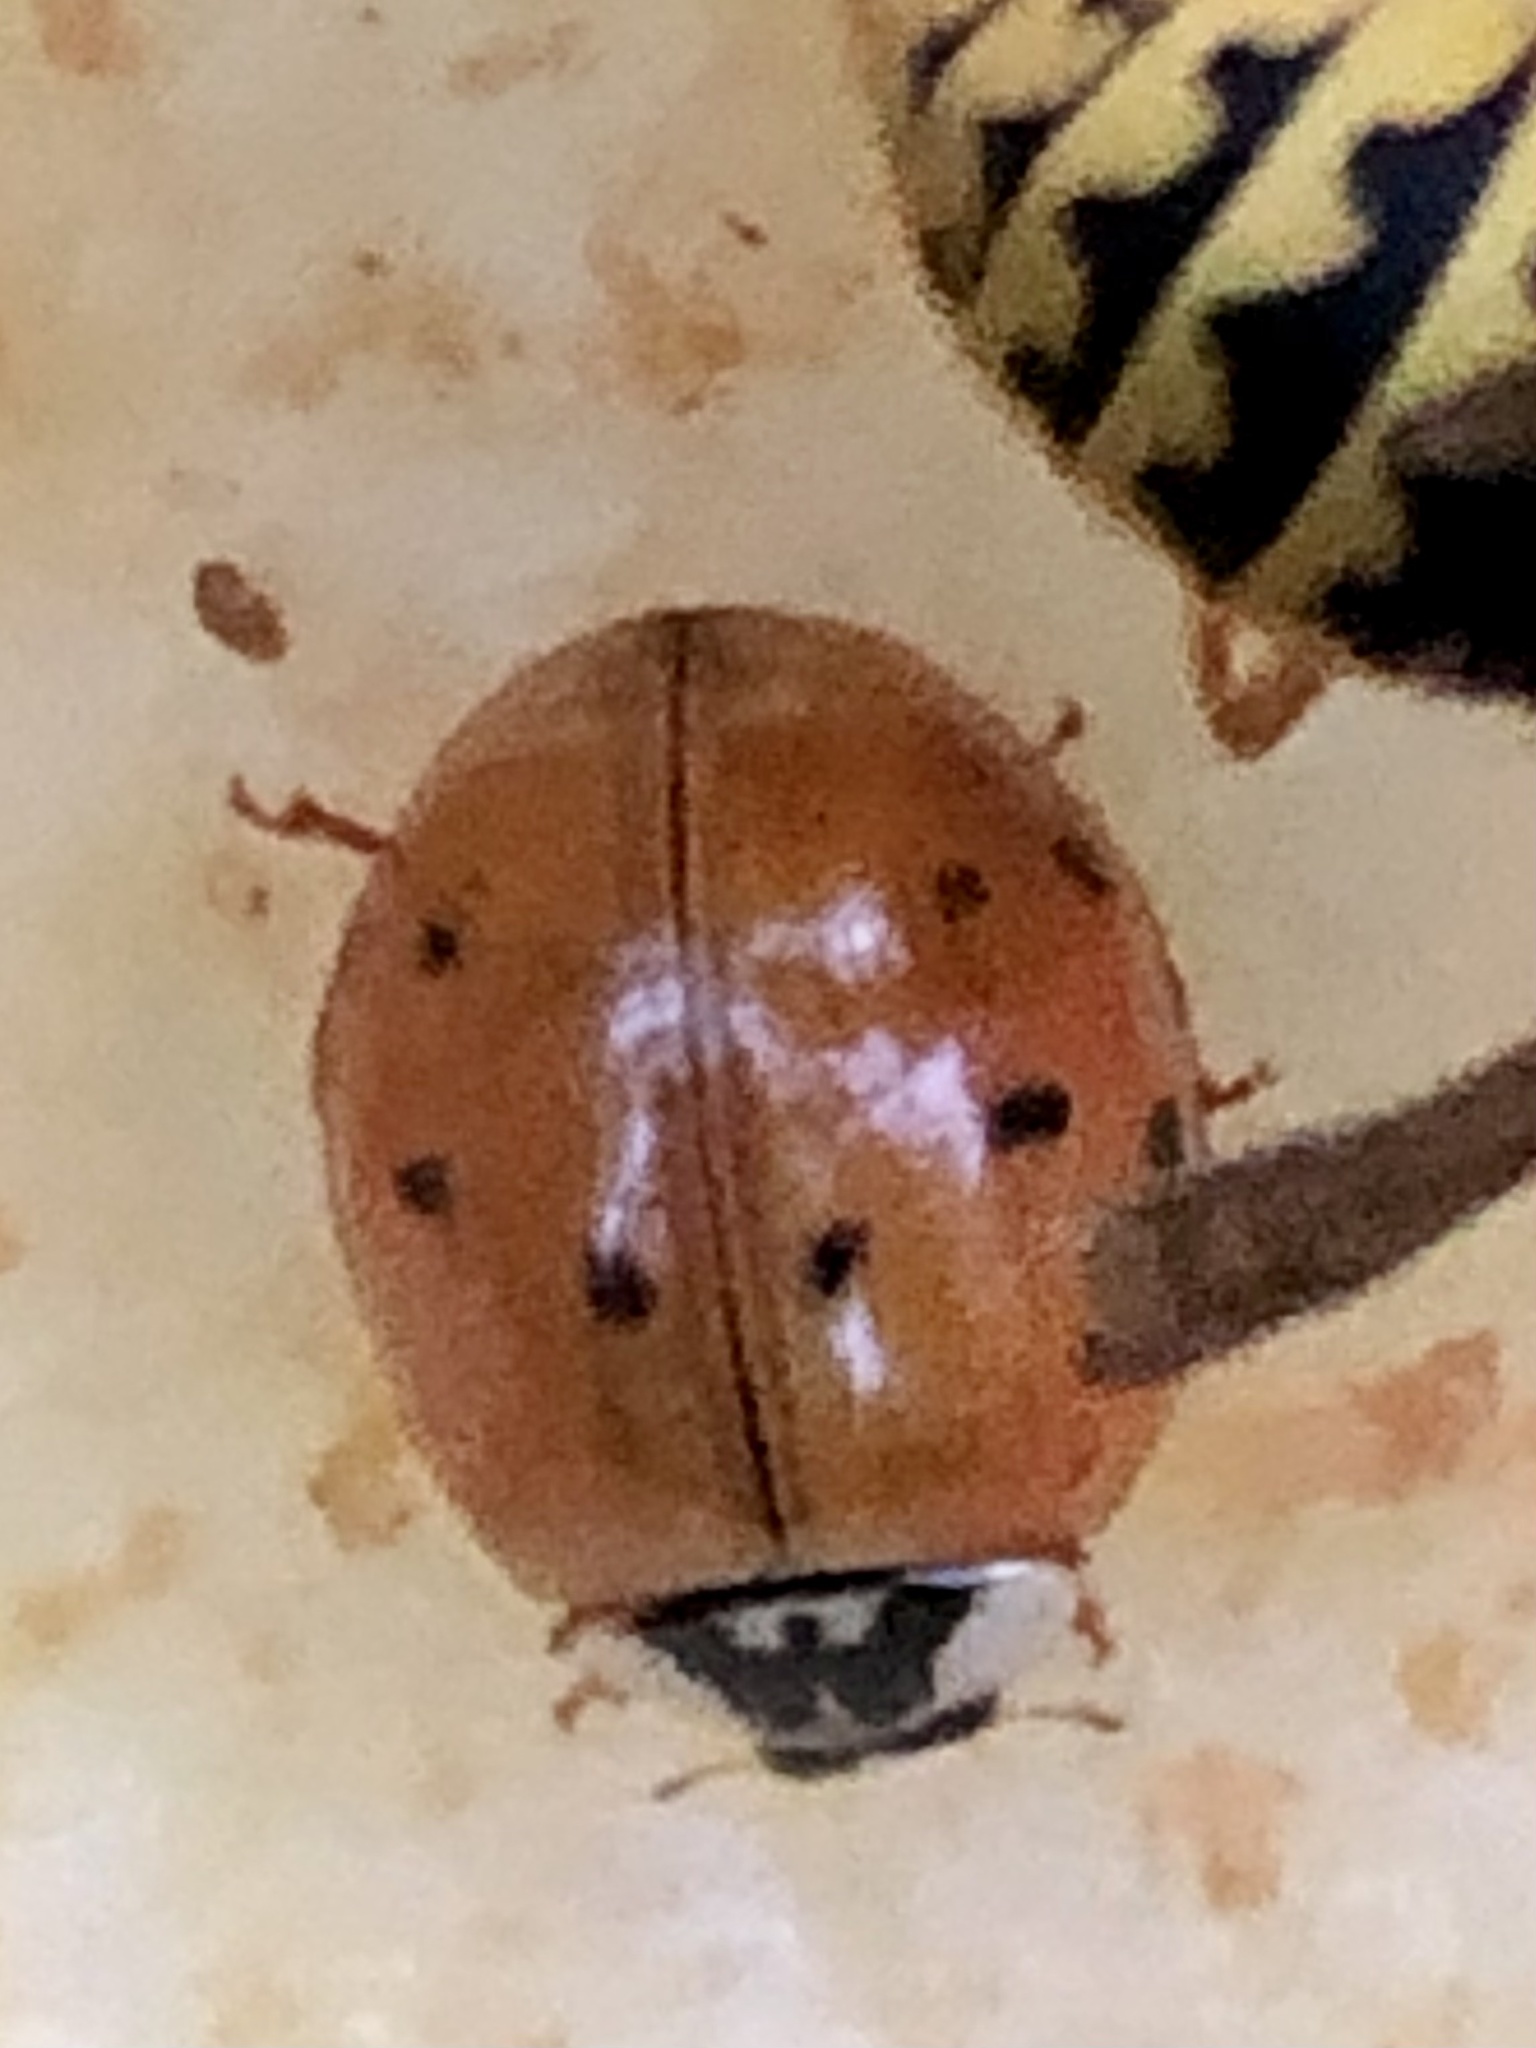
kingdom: Animalia
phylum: Arthropoda
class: Insecta
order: Coleoptera
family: Coccinellidae
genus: Harmonia
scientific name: Harmonia axyridis
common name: Harlequin ladybird
